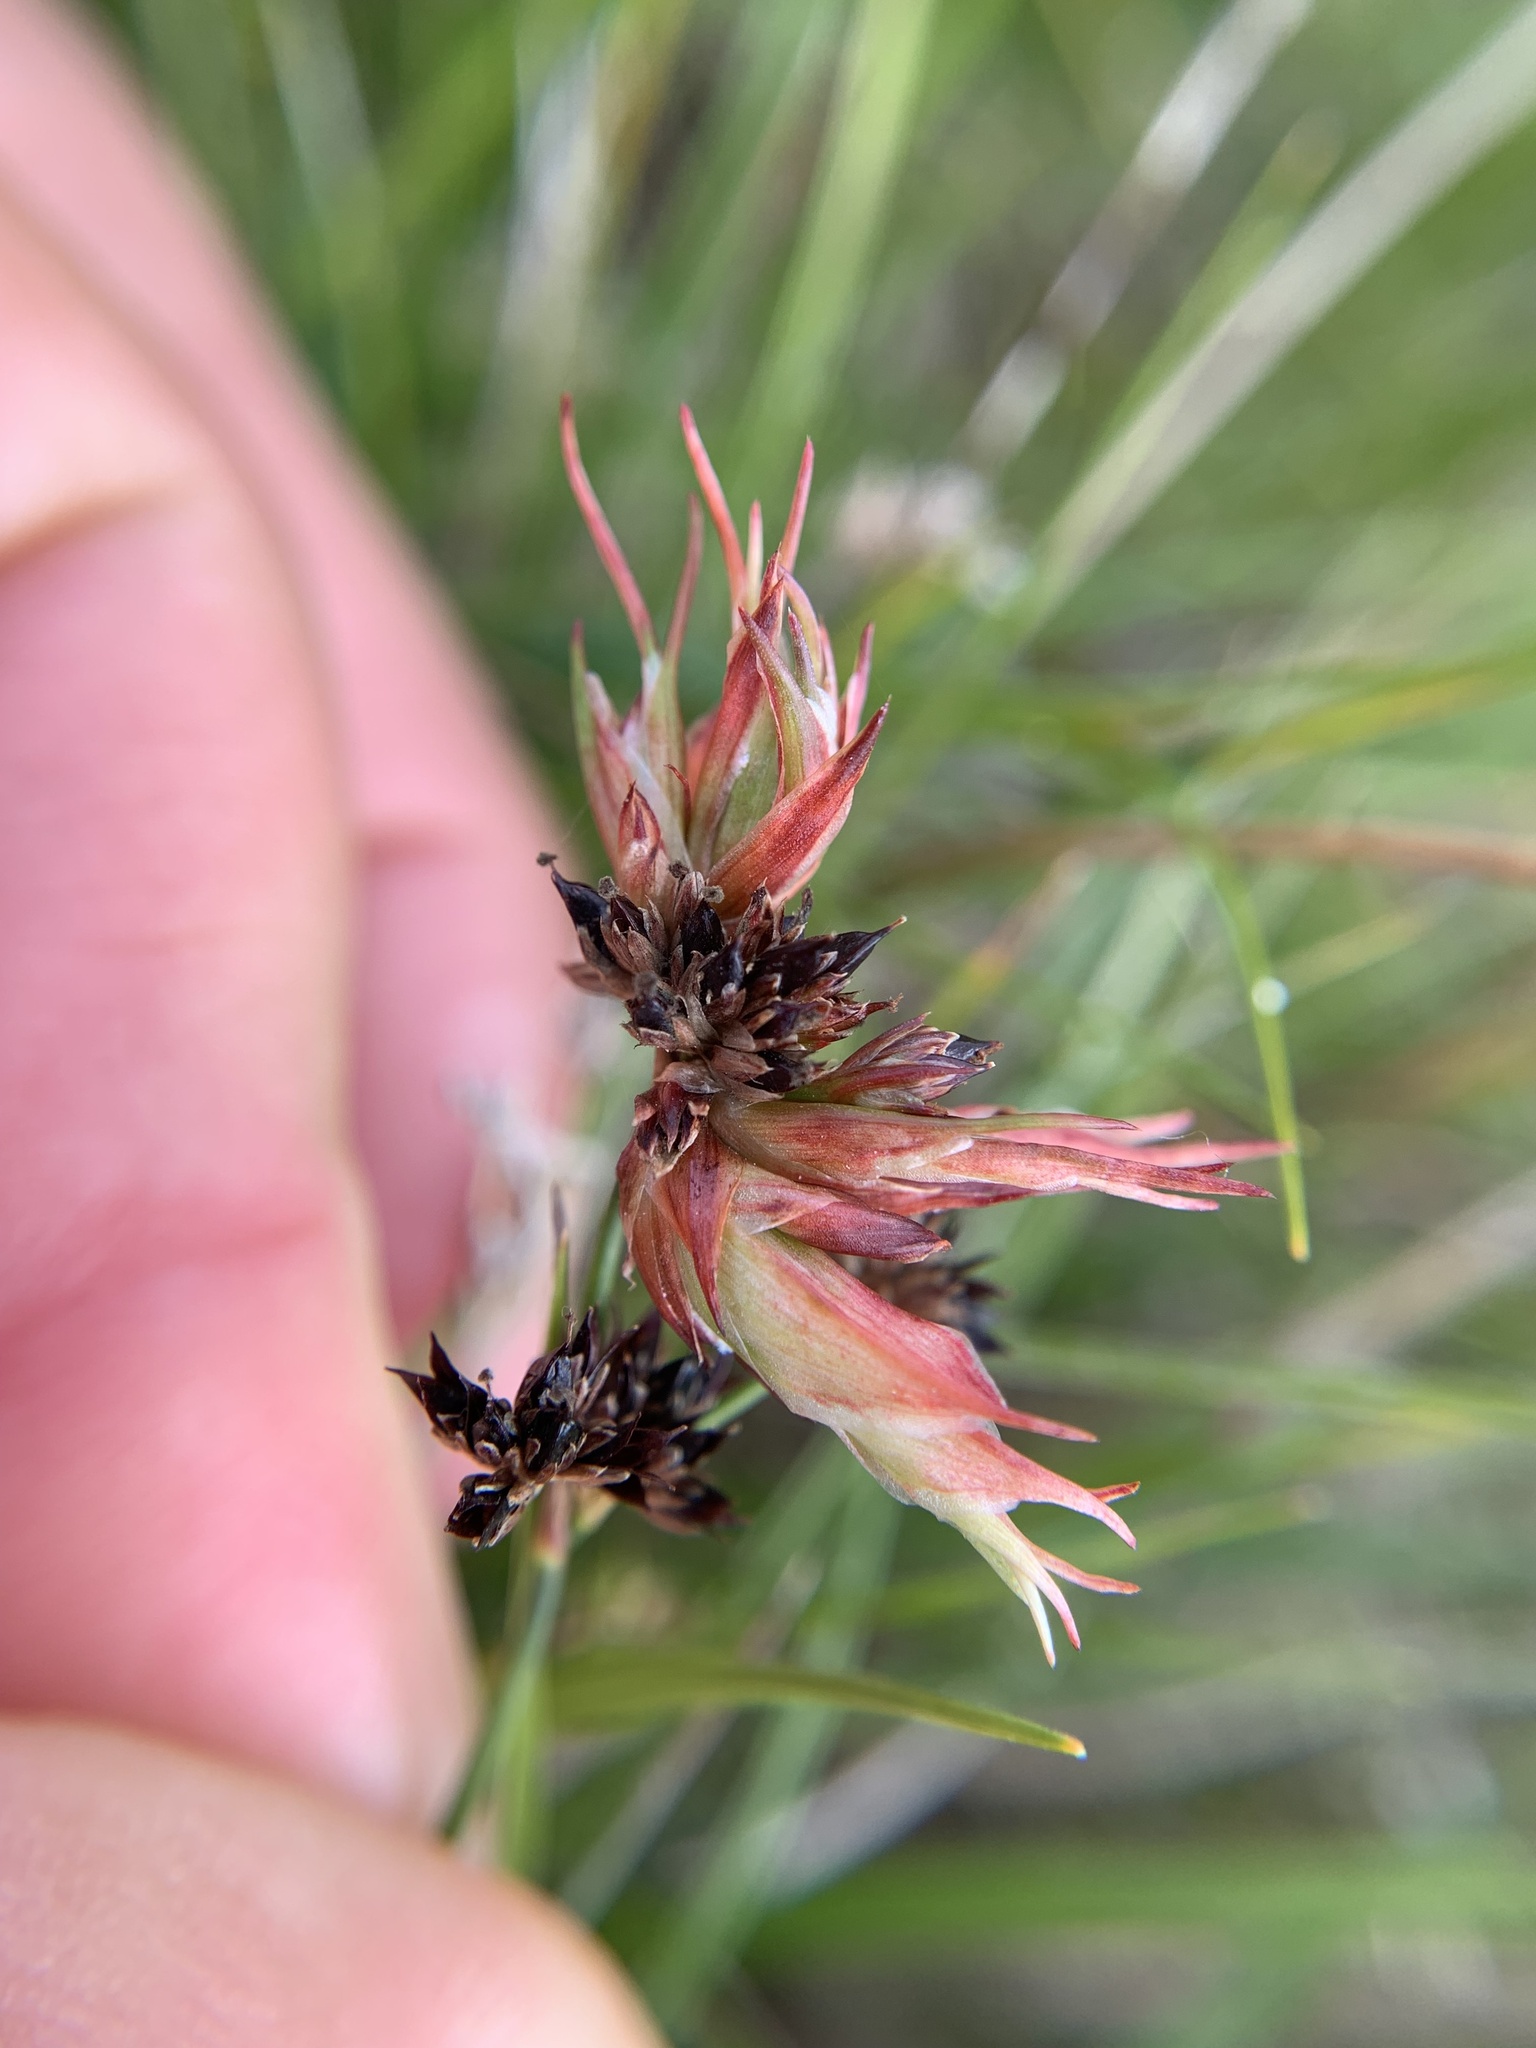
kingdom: Animalia
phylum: Arthropoda
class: Insecta
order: Hemiptera
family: Liviidae
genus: Livia
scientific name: Livia junci
